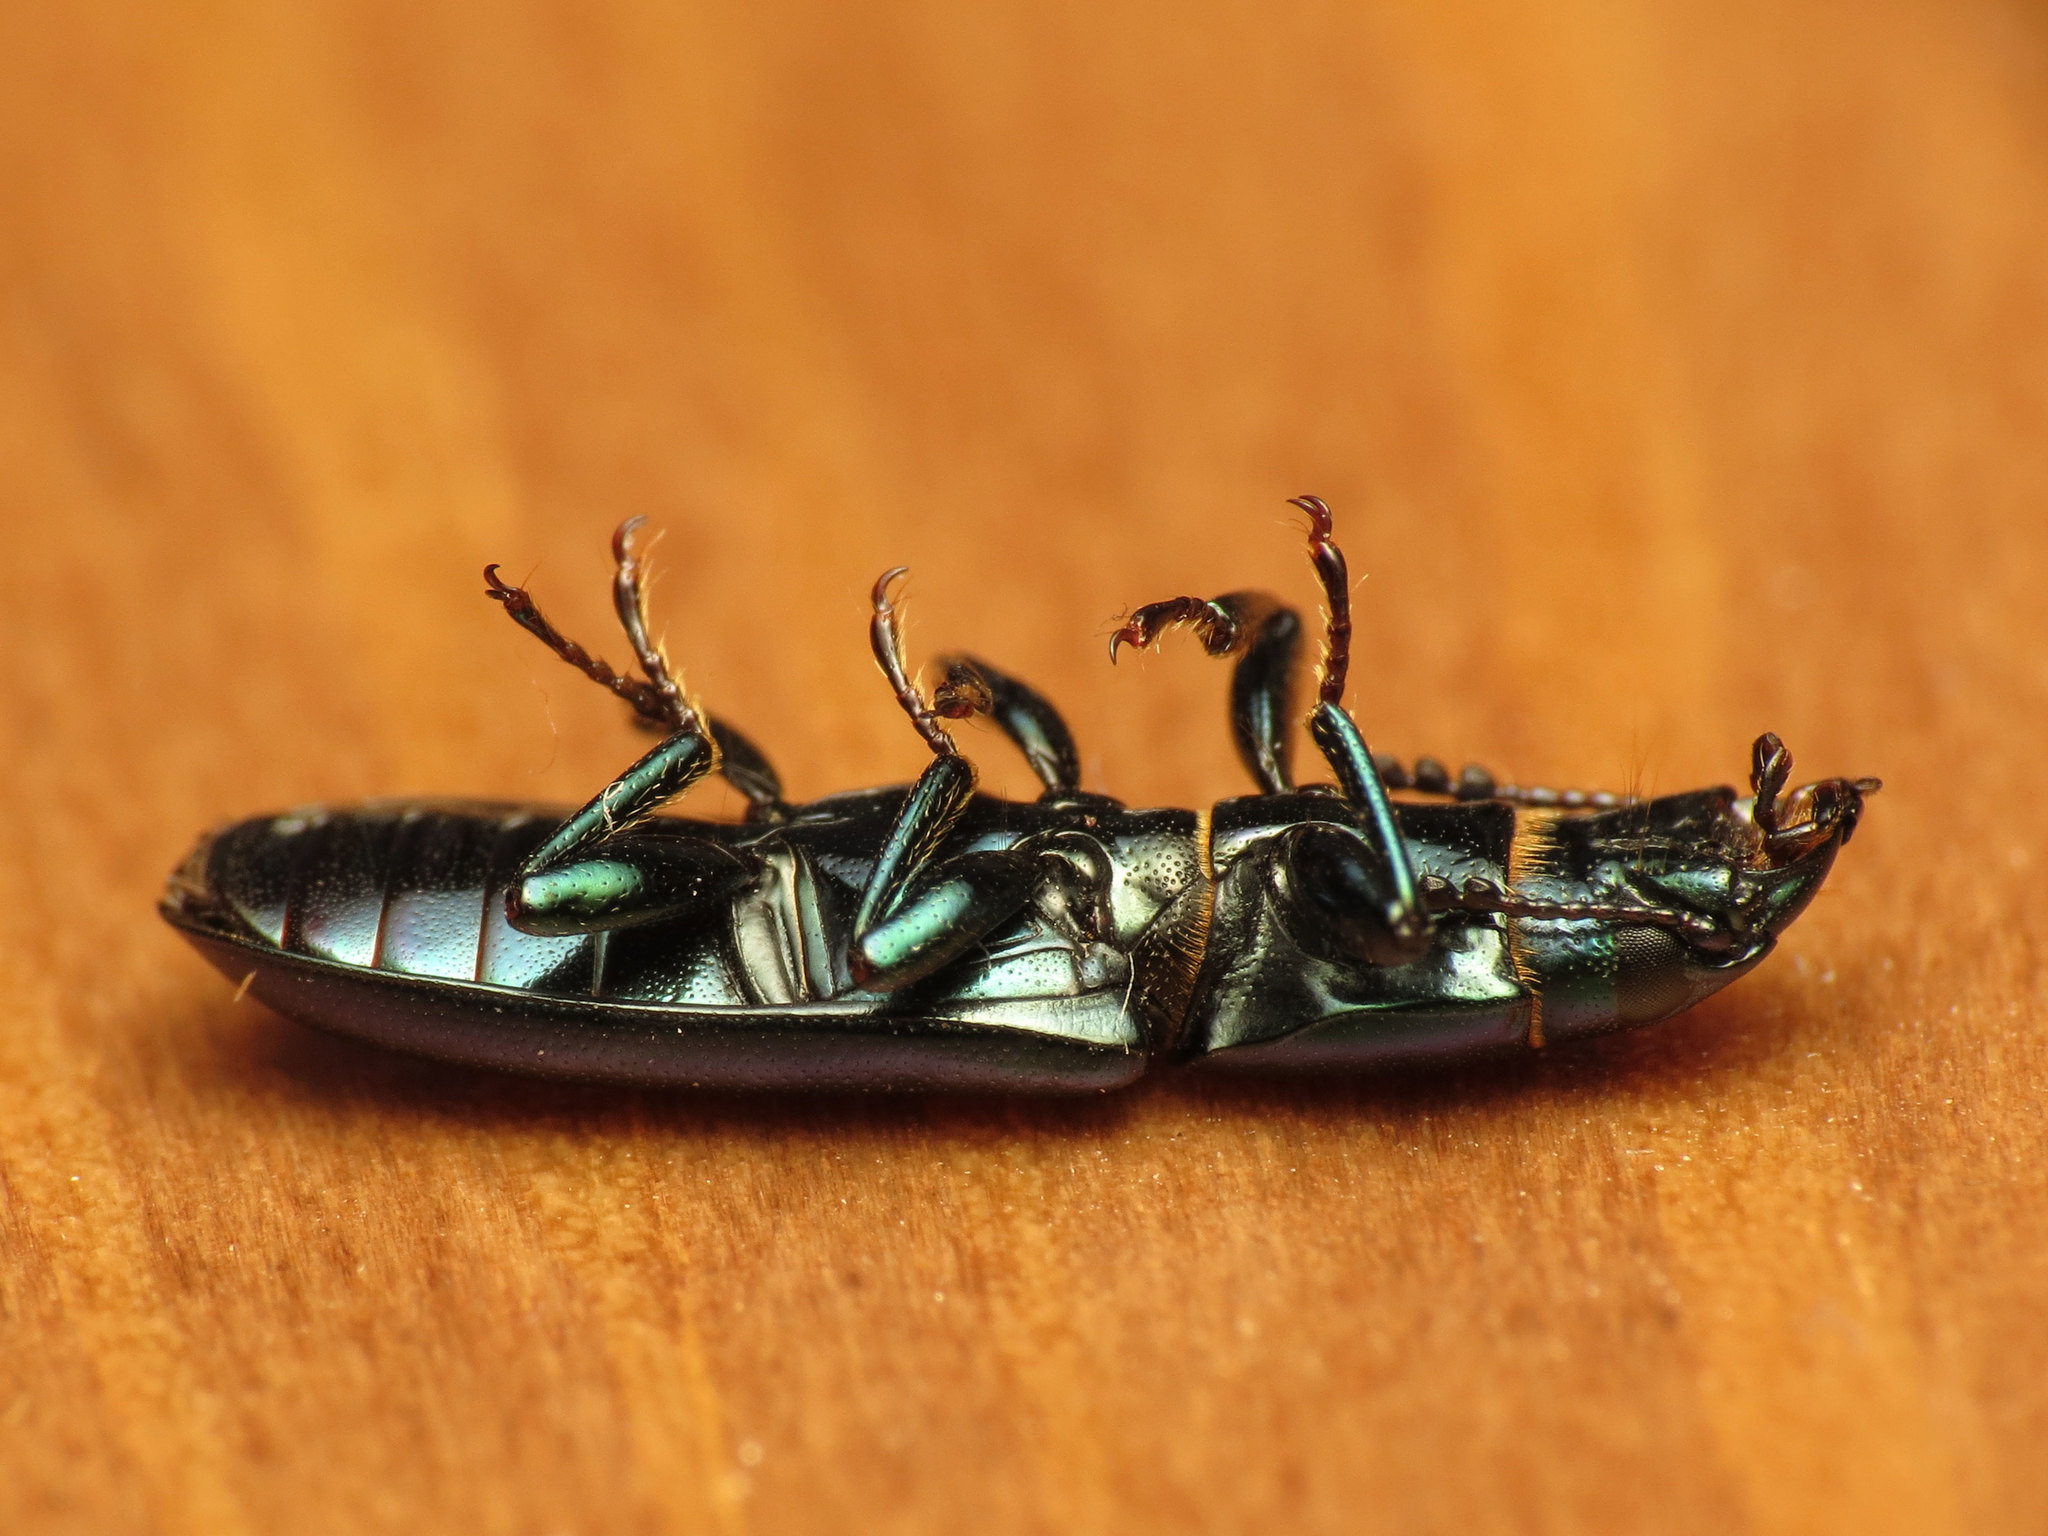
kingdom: Animalia
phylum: Arthropoda
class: Insecta
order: Coleoptera
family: Trogossitidae
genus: Temnochila
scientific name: Temnochila virescens
